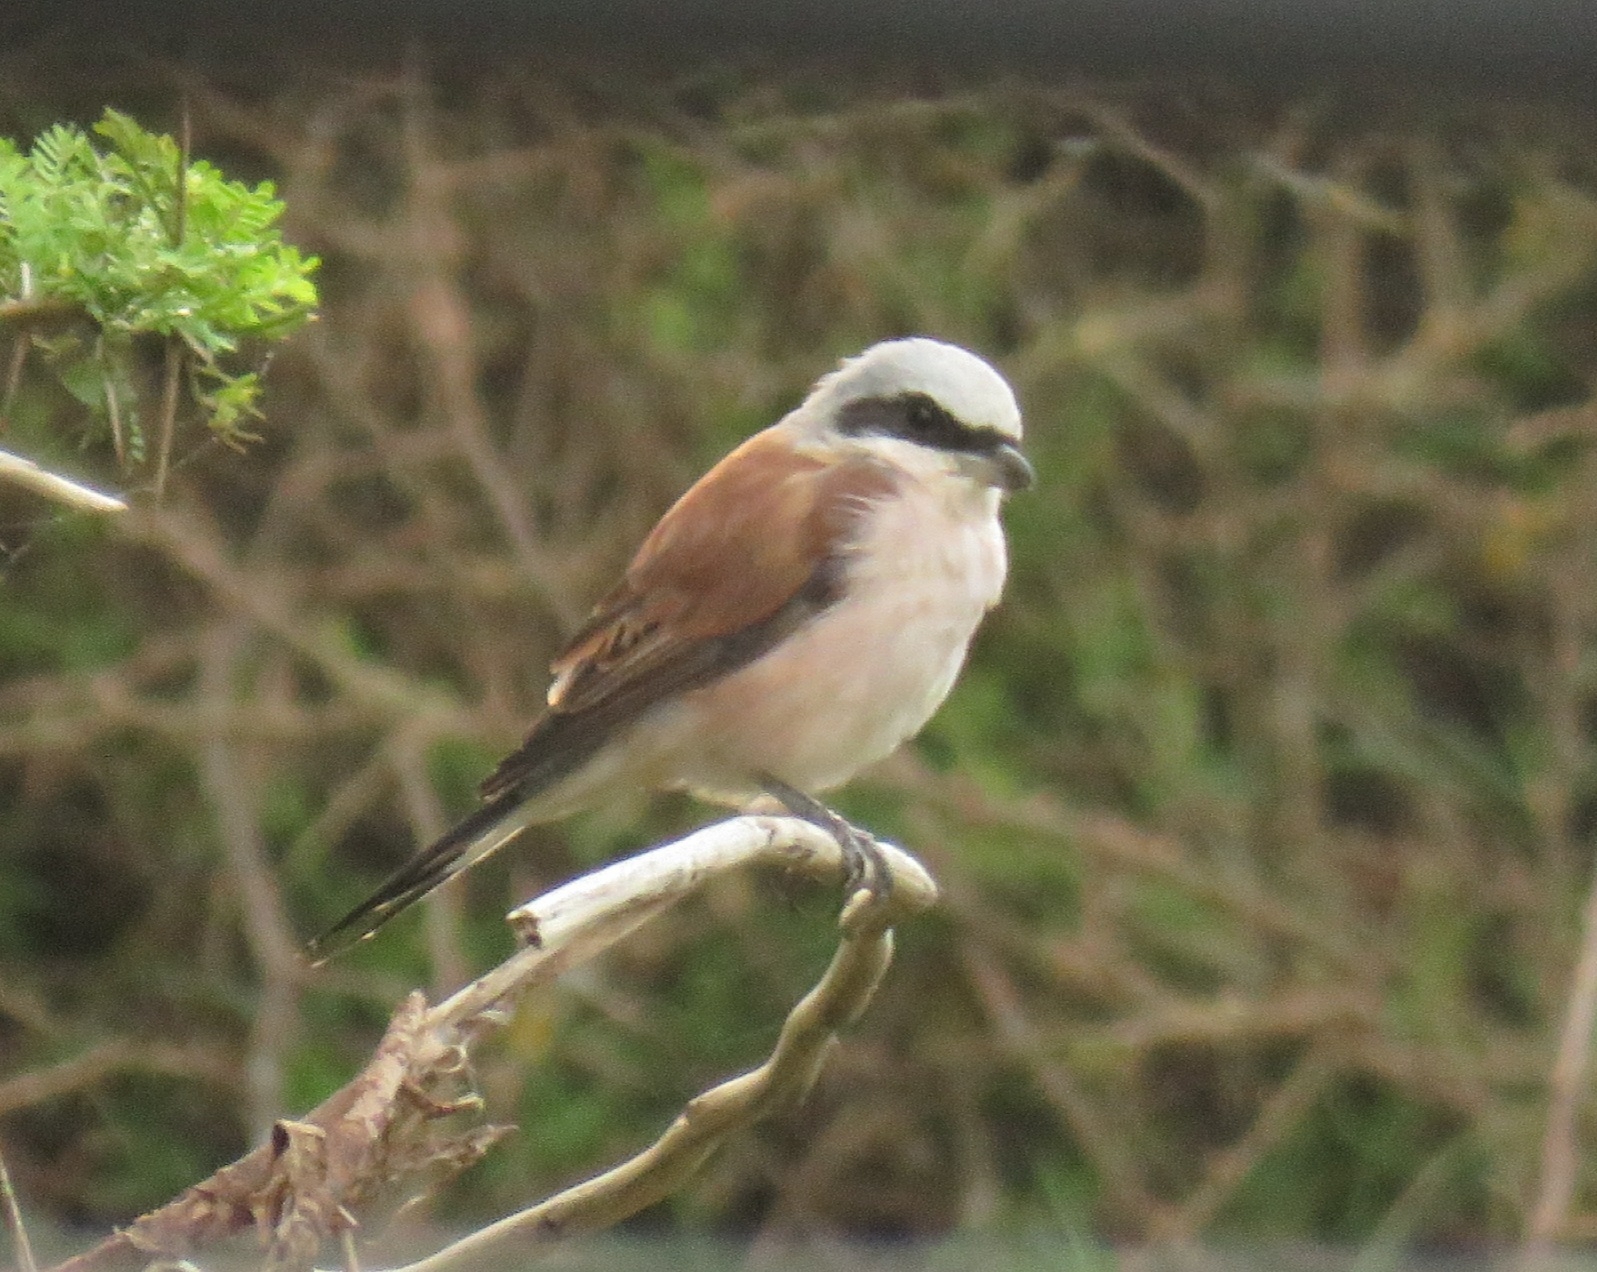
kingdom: Animalia
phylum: Chordata
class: Aves
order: Passeriformes
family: Laniidae
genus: Lanius
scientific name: Lanius collurio
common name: Red-backed shrike
